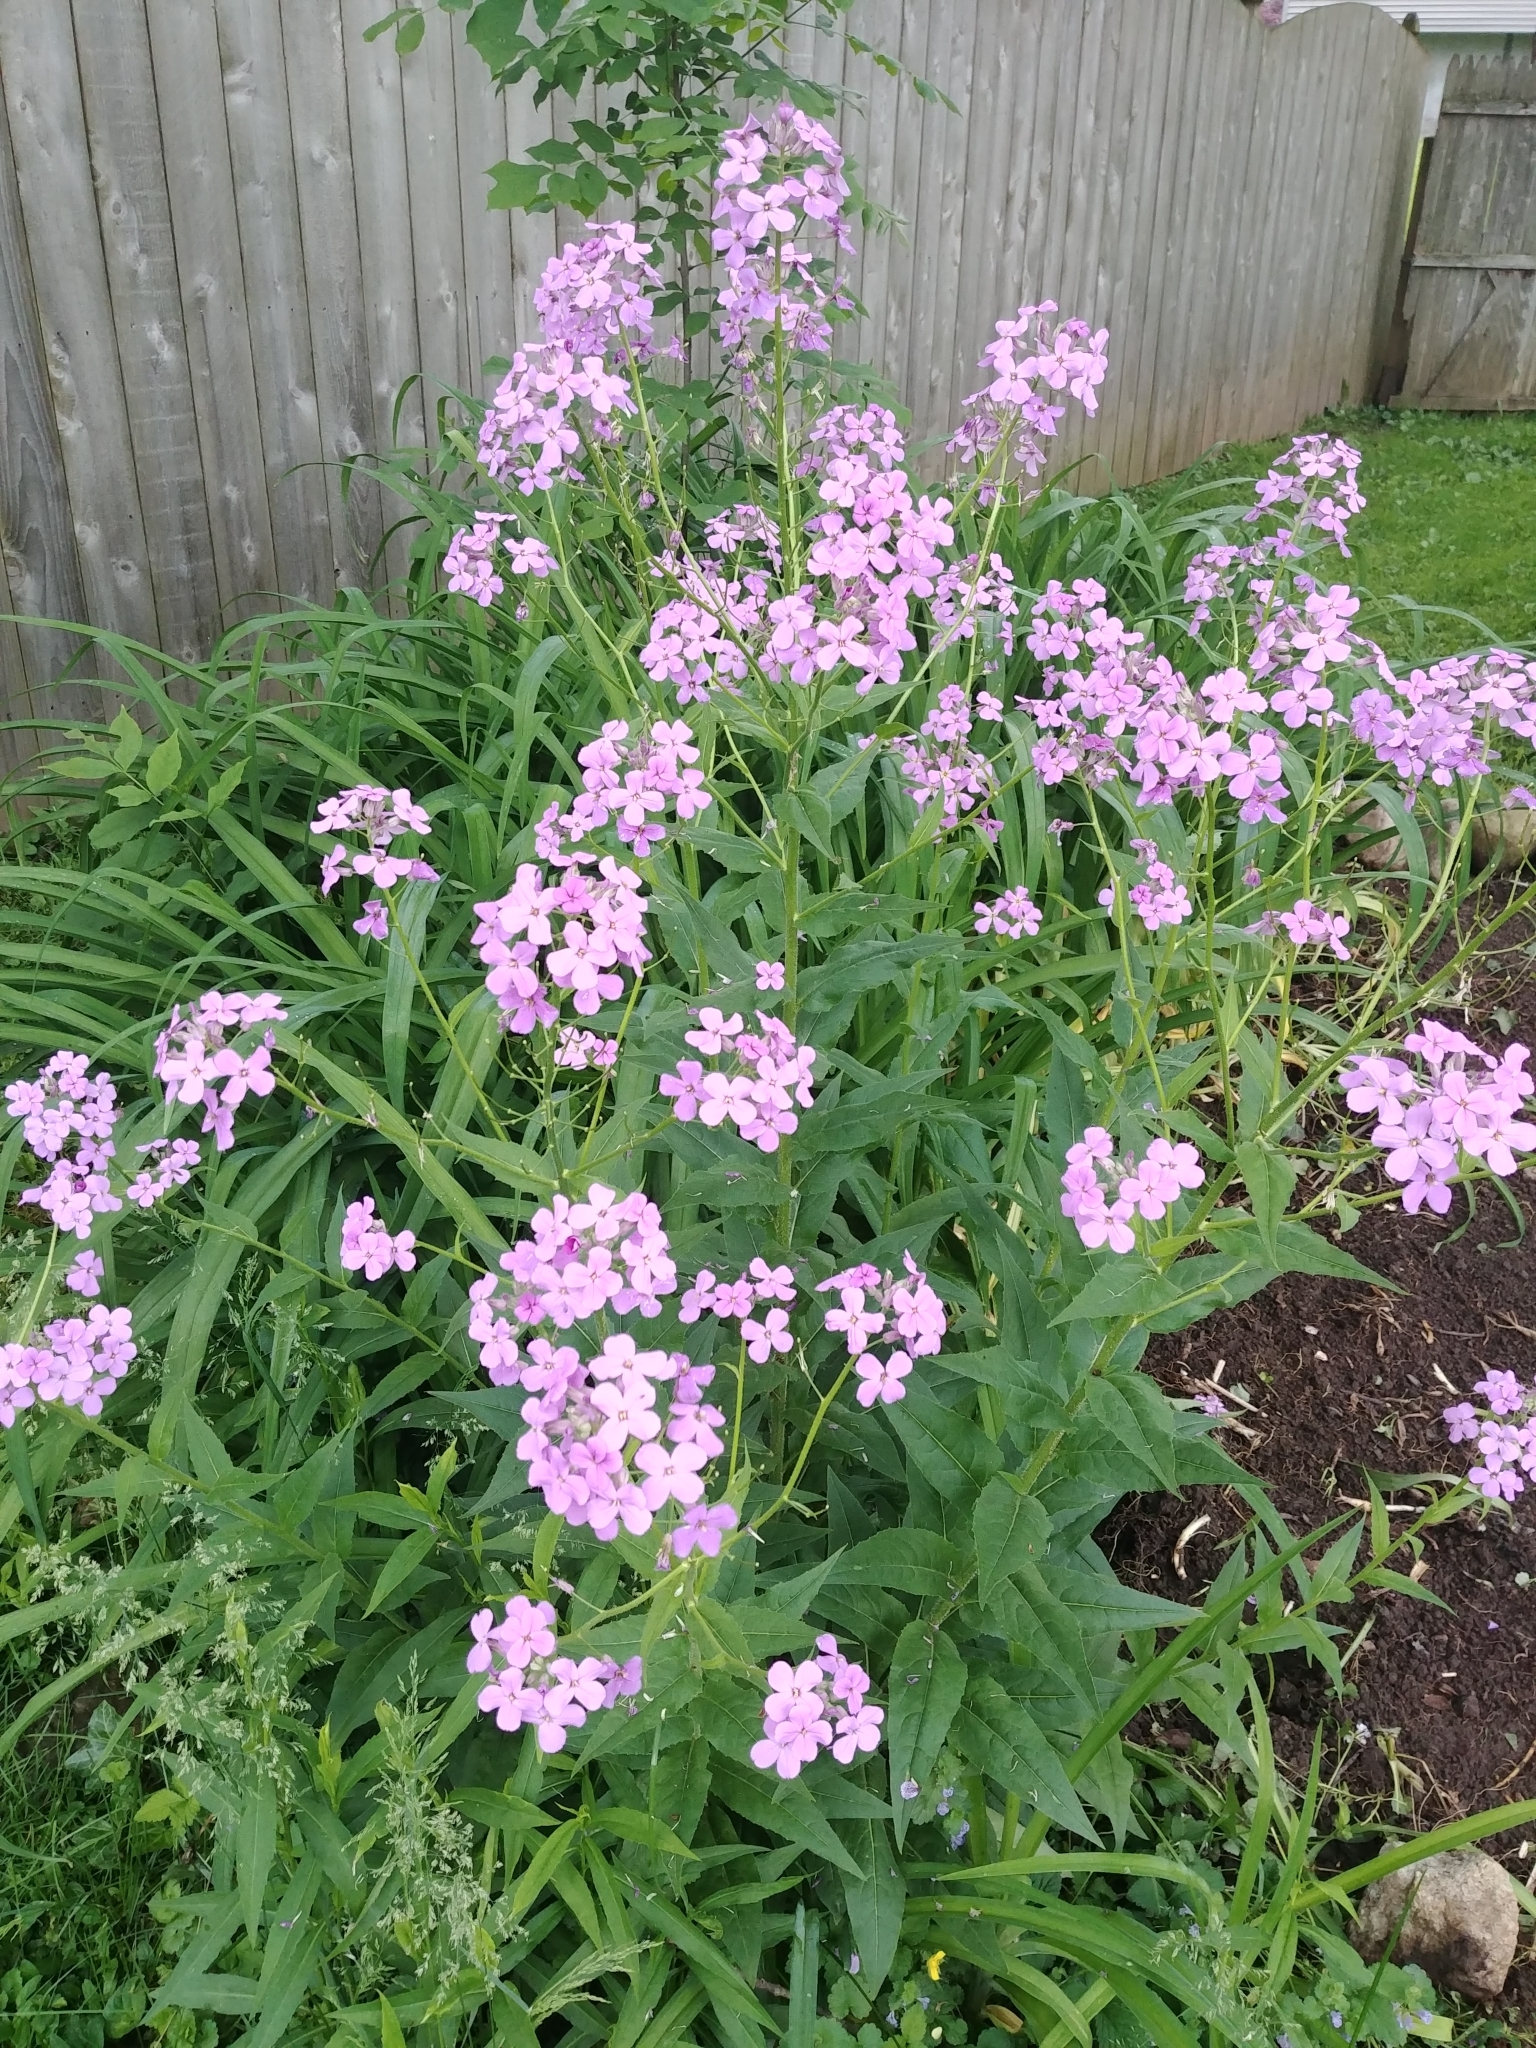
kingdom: Plantae
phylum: Tracheophyta
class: Magnoliopsida
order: Brassicales
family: Brassicaceae
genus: Hesperis
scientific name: Hesperis matronalis
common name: Dame's-violet
